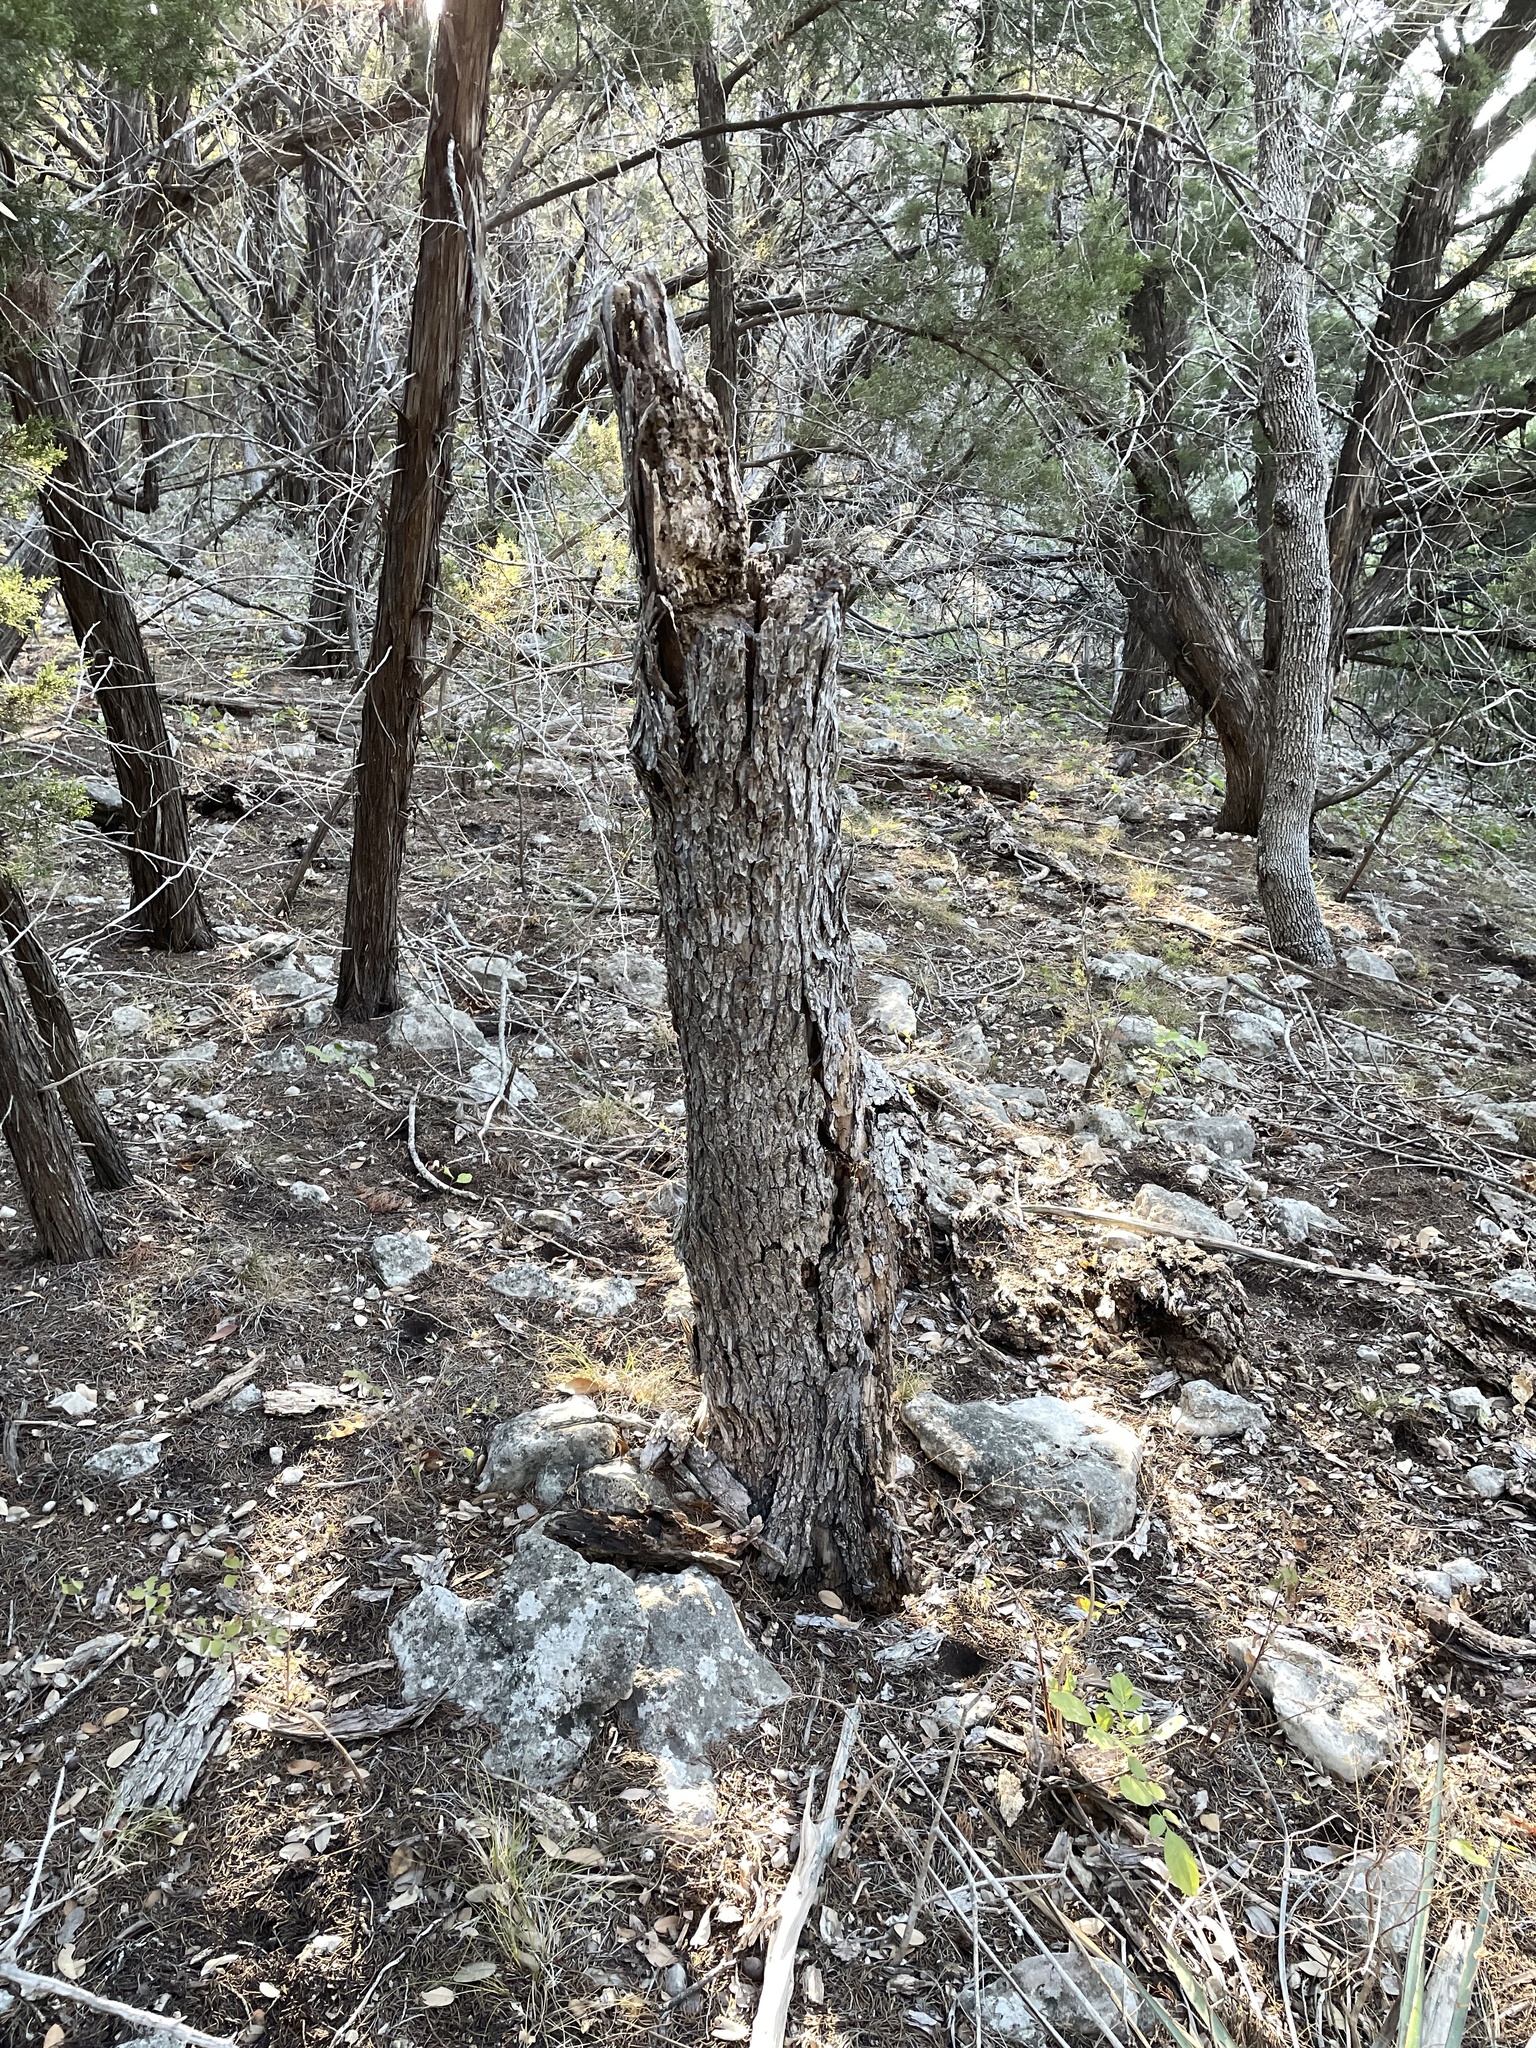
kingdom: Plantae
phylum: Tracheophyta
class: Magnoliopsida
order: Rosales
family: Ulmaceae
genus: Ulmus
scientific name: Ulmus crassifolia
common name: Basket elm
